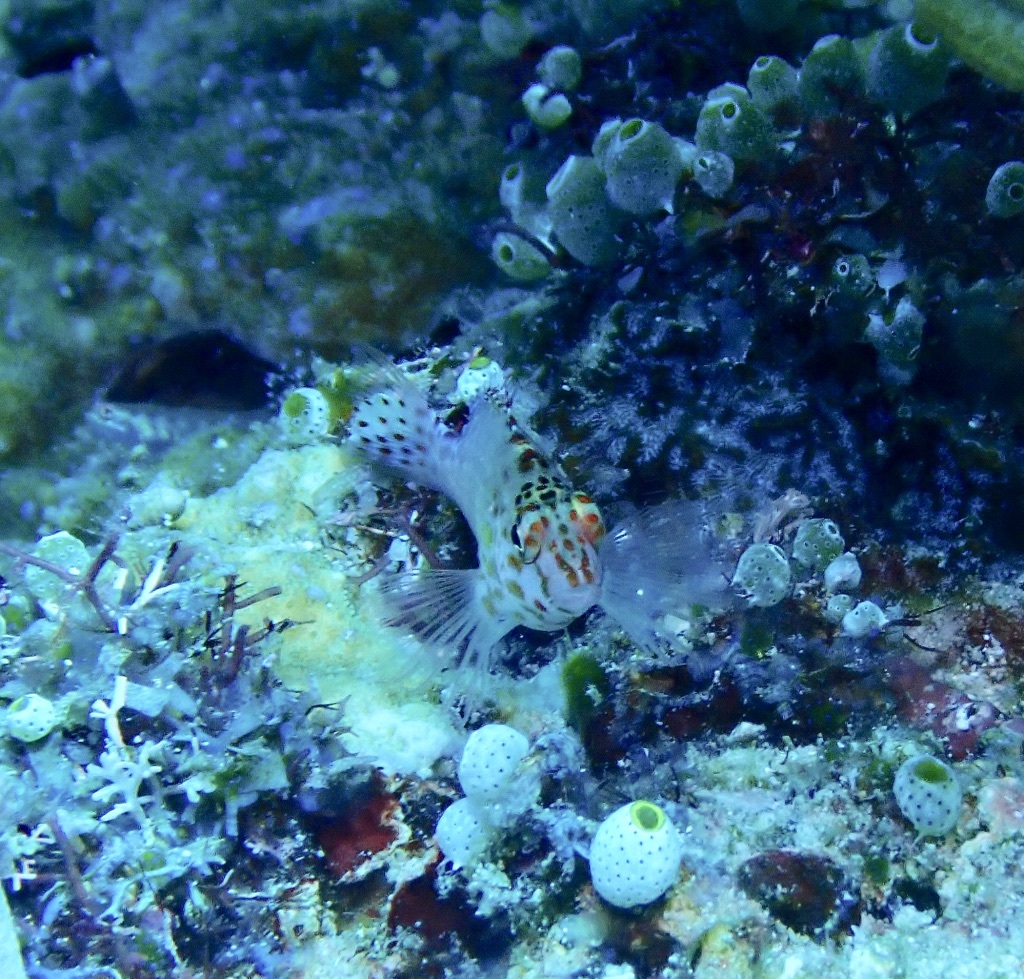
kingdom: Animalia
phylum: Chordata
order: Perciformes
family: Cirrhitidae
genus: Cirrhitichthys
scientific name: Cirrhitichthys falco
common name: Coral hawkfish
